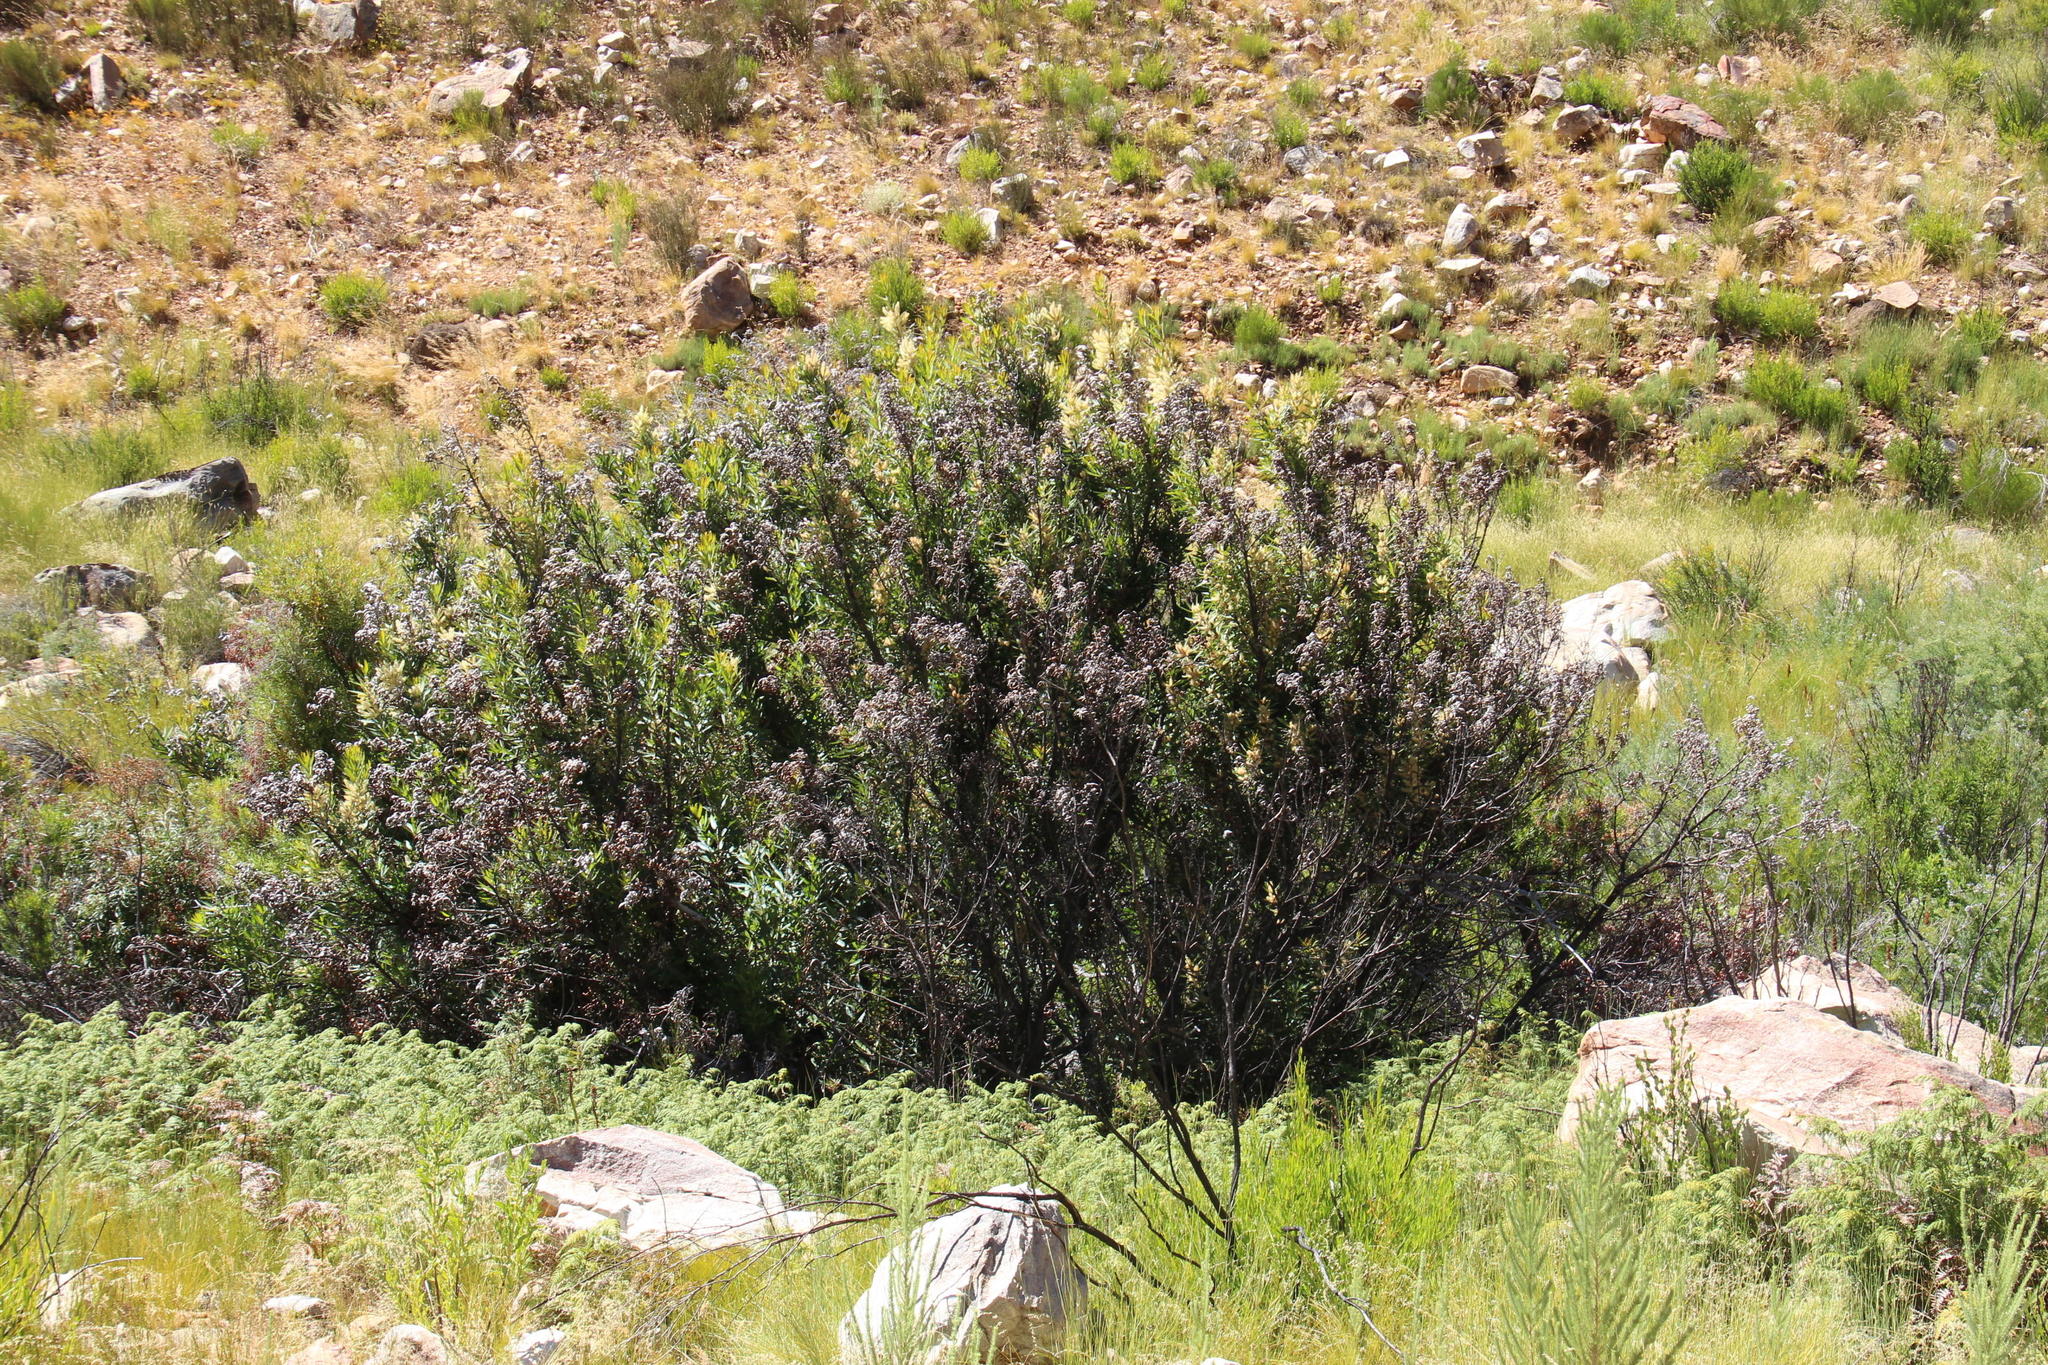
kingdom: Plantae
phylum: Tracheophyta
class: Magnoliopsida
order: Proteales
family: Proteaceae
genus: Brabejum
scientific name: Brabejum stellatifolium
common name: Wild almond
